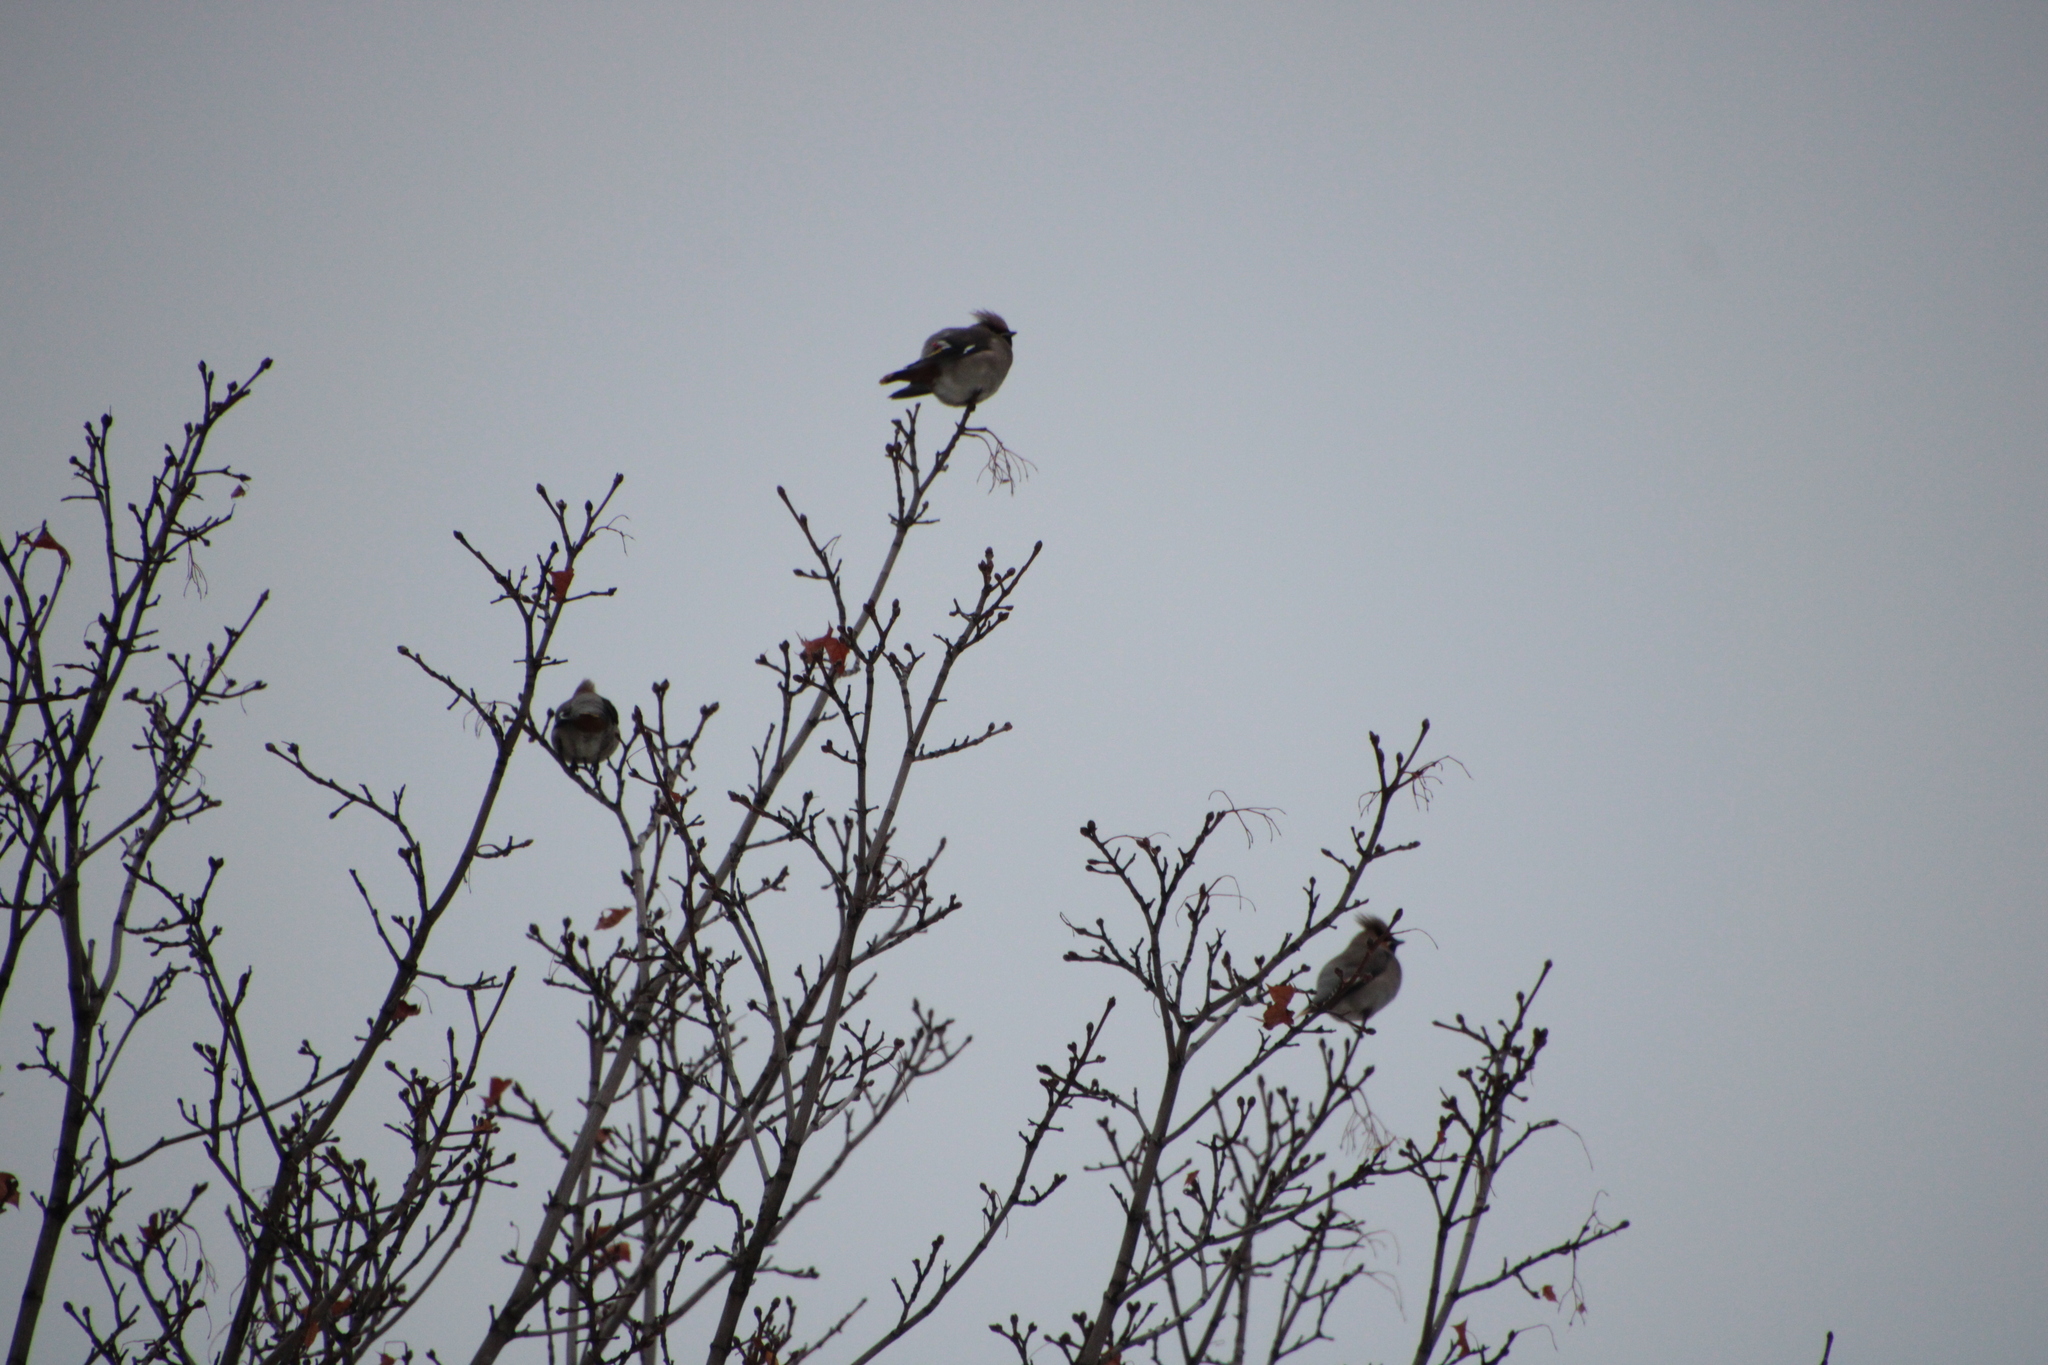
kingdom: Animalia
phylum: Chordata
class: Aves
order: Passeriformes
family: Bombycillidae
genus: Bombycilla
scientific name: Bombycilla garrulus
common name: Bohemian waxwing
